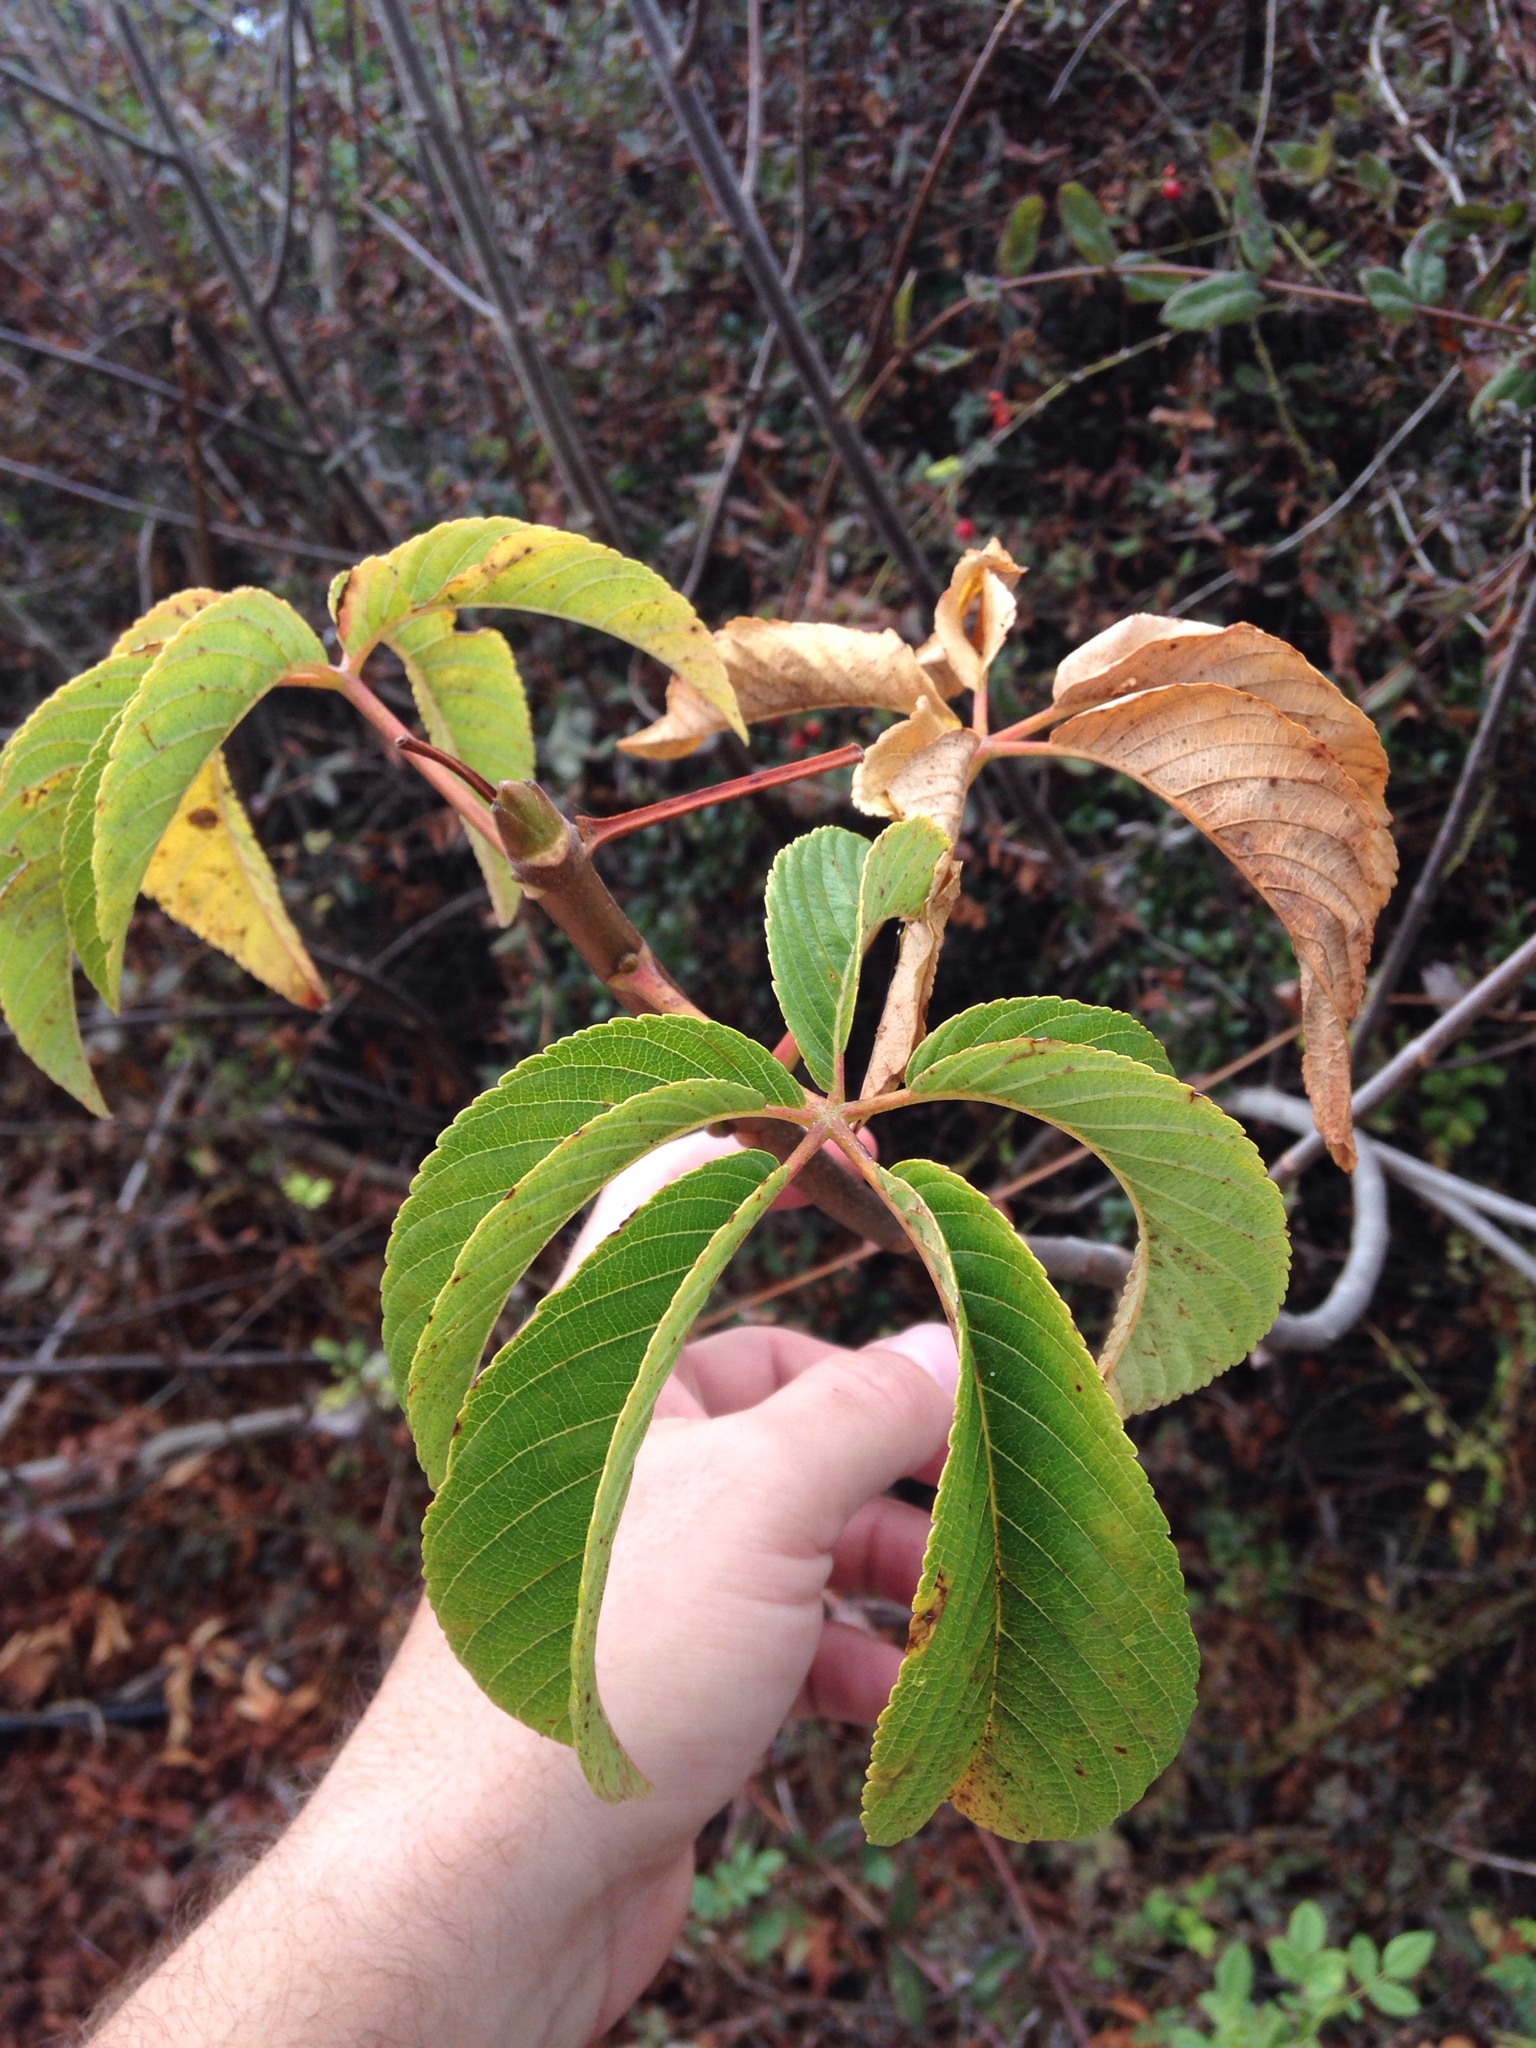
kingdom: Plantae
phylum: Tracheophyta
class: Magnoliopsida
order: Sapindales
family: Sapindaceae
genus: Aesculus
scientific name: Aesculus californica
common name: California buckeye
